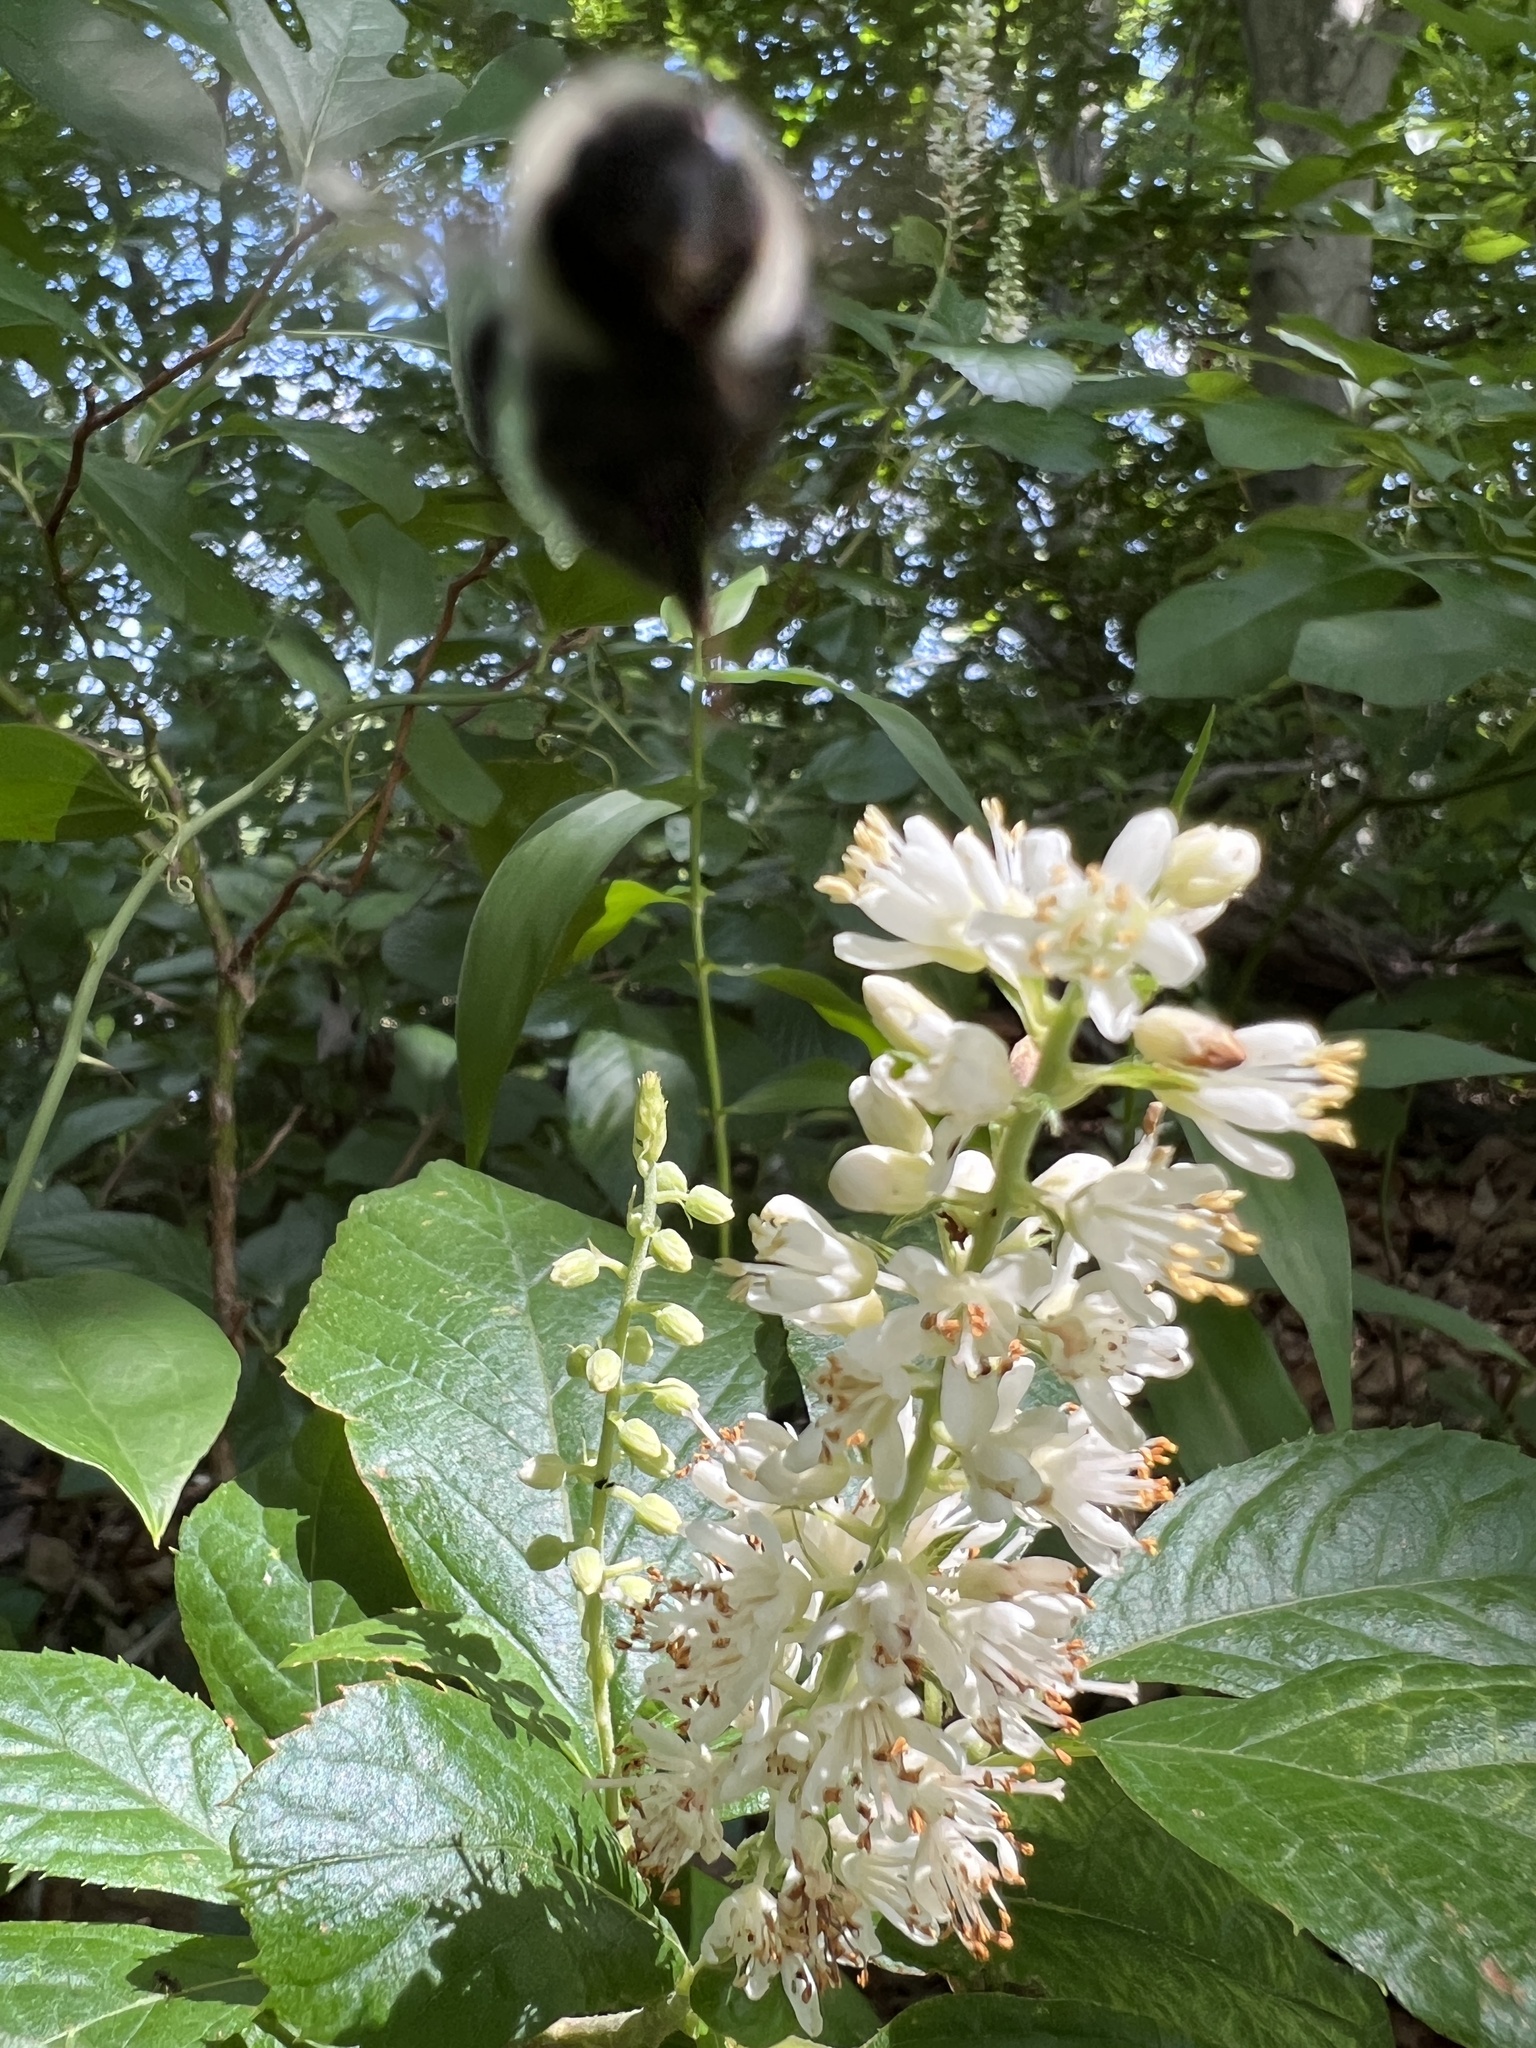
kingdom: Plantae
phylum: Tracheophyta
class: Magnoliopsida
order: Ericales
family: Clethraceae
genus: Clethra
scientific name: Clethra alnifolia
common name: Sweet pepperbush
